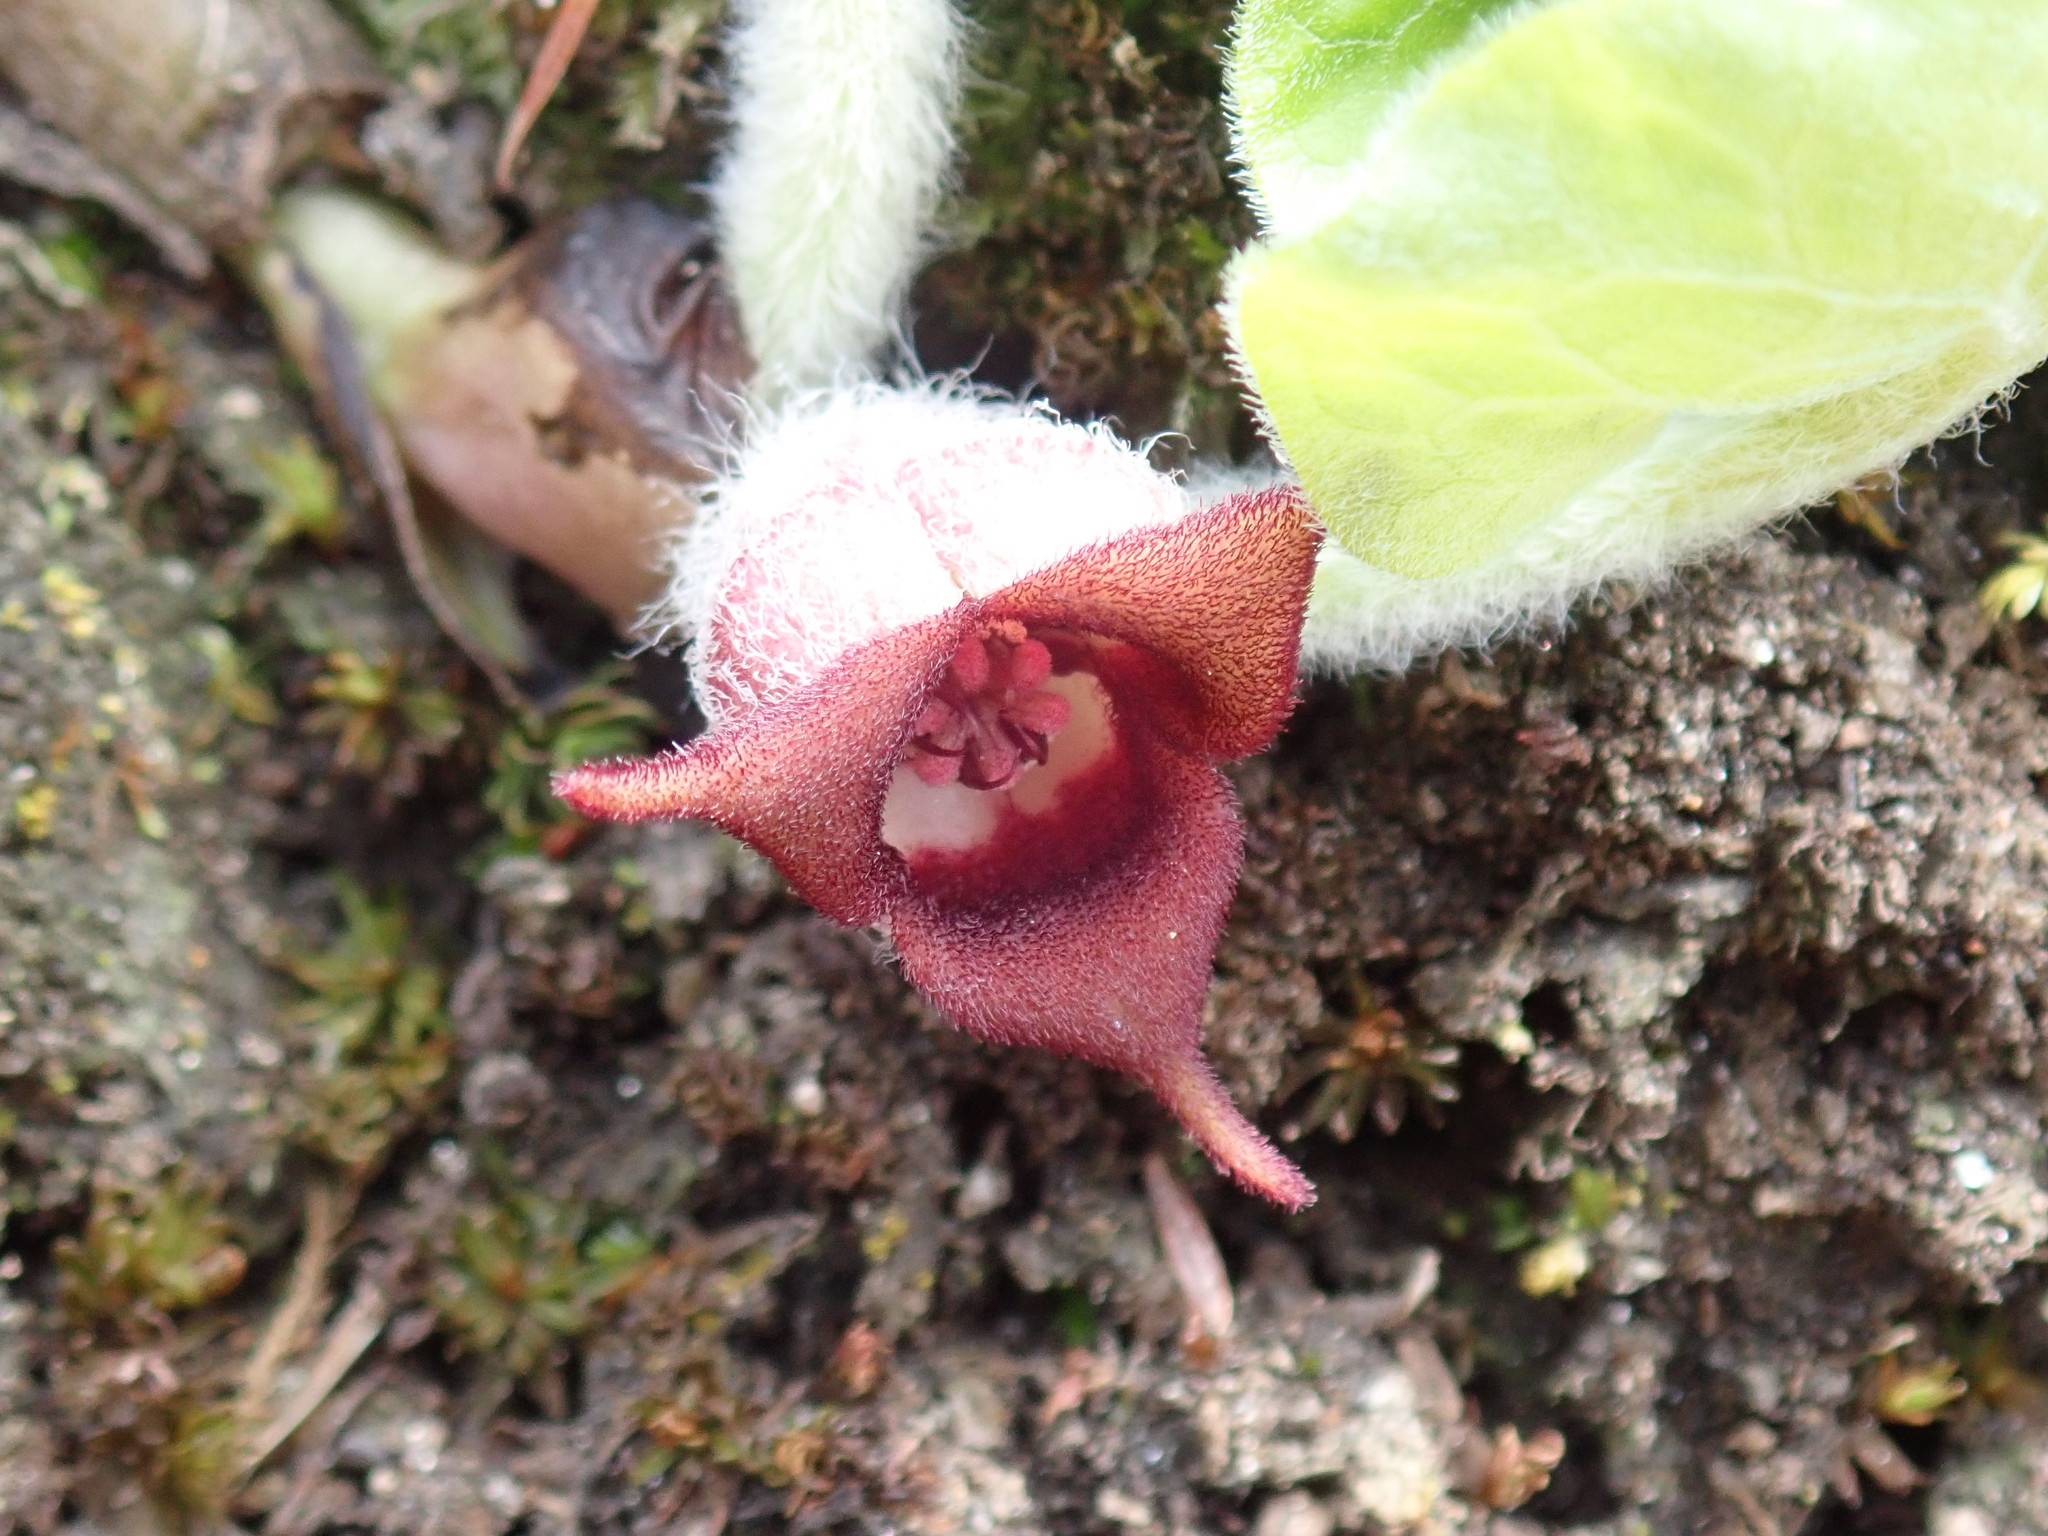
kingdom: Plantae
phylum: Tracheophyta
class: Magnoliopsida
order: Piperales
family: Aristolochiaceae
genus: Asarum
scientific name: Asarum canadense
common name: Wild ginger
